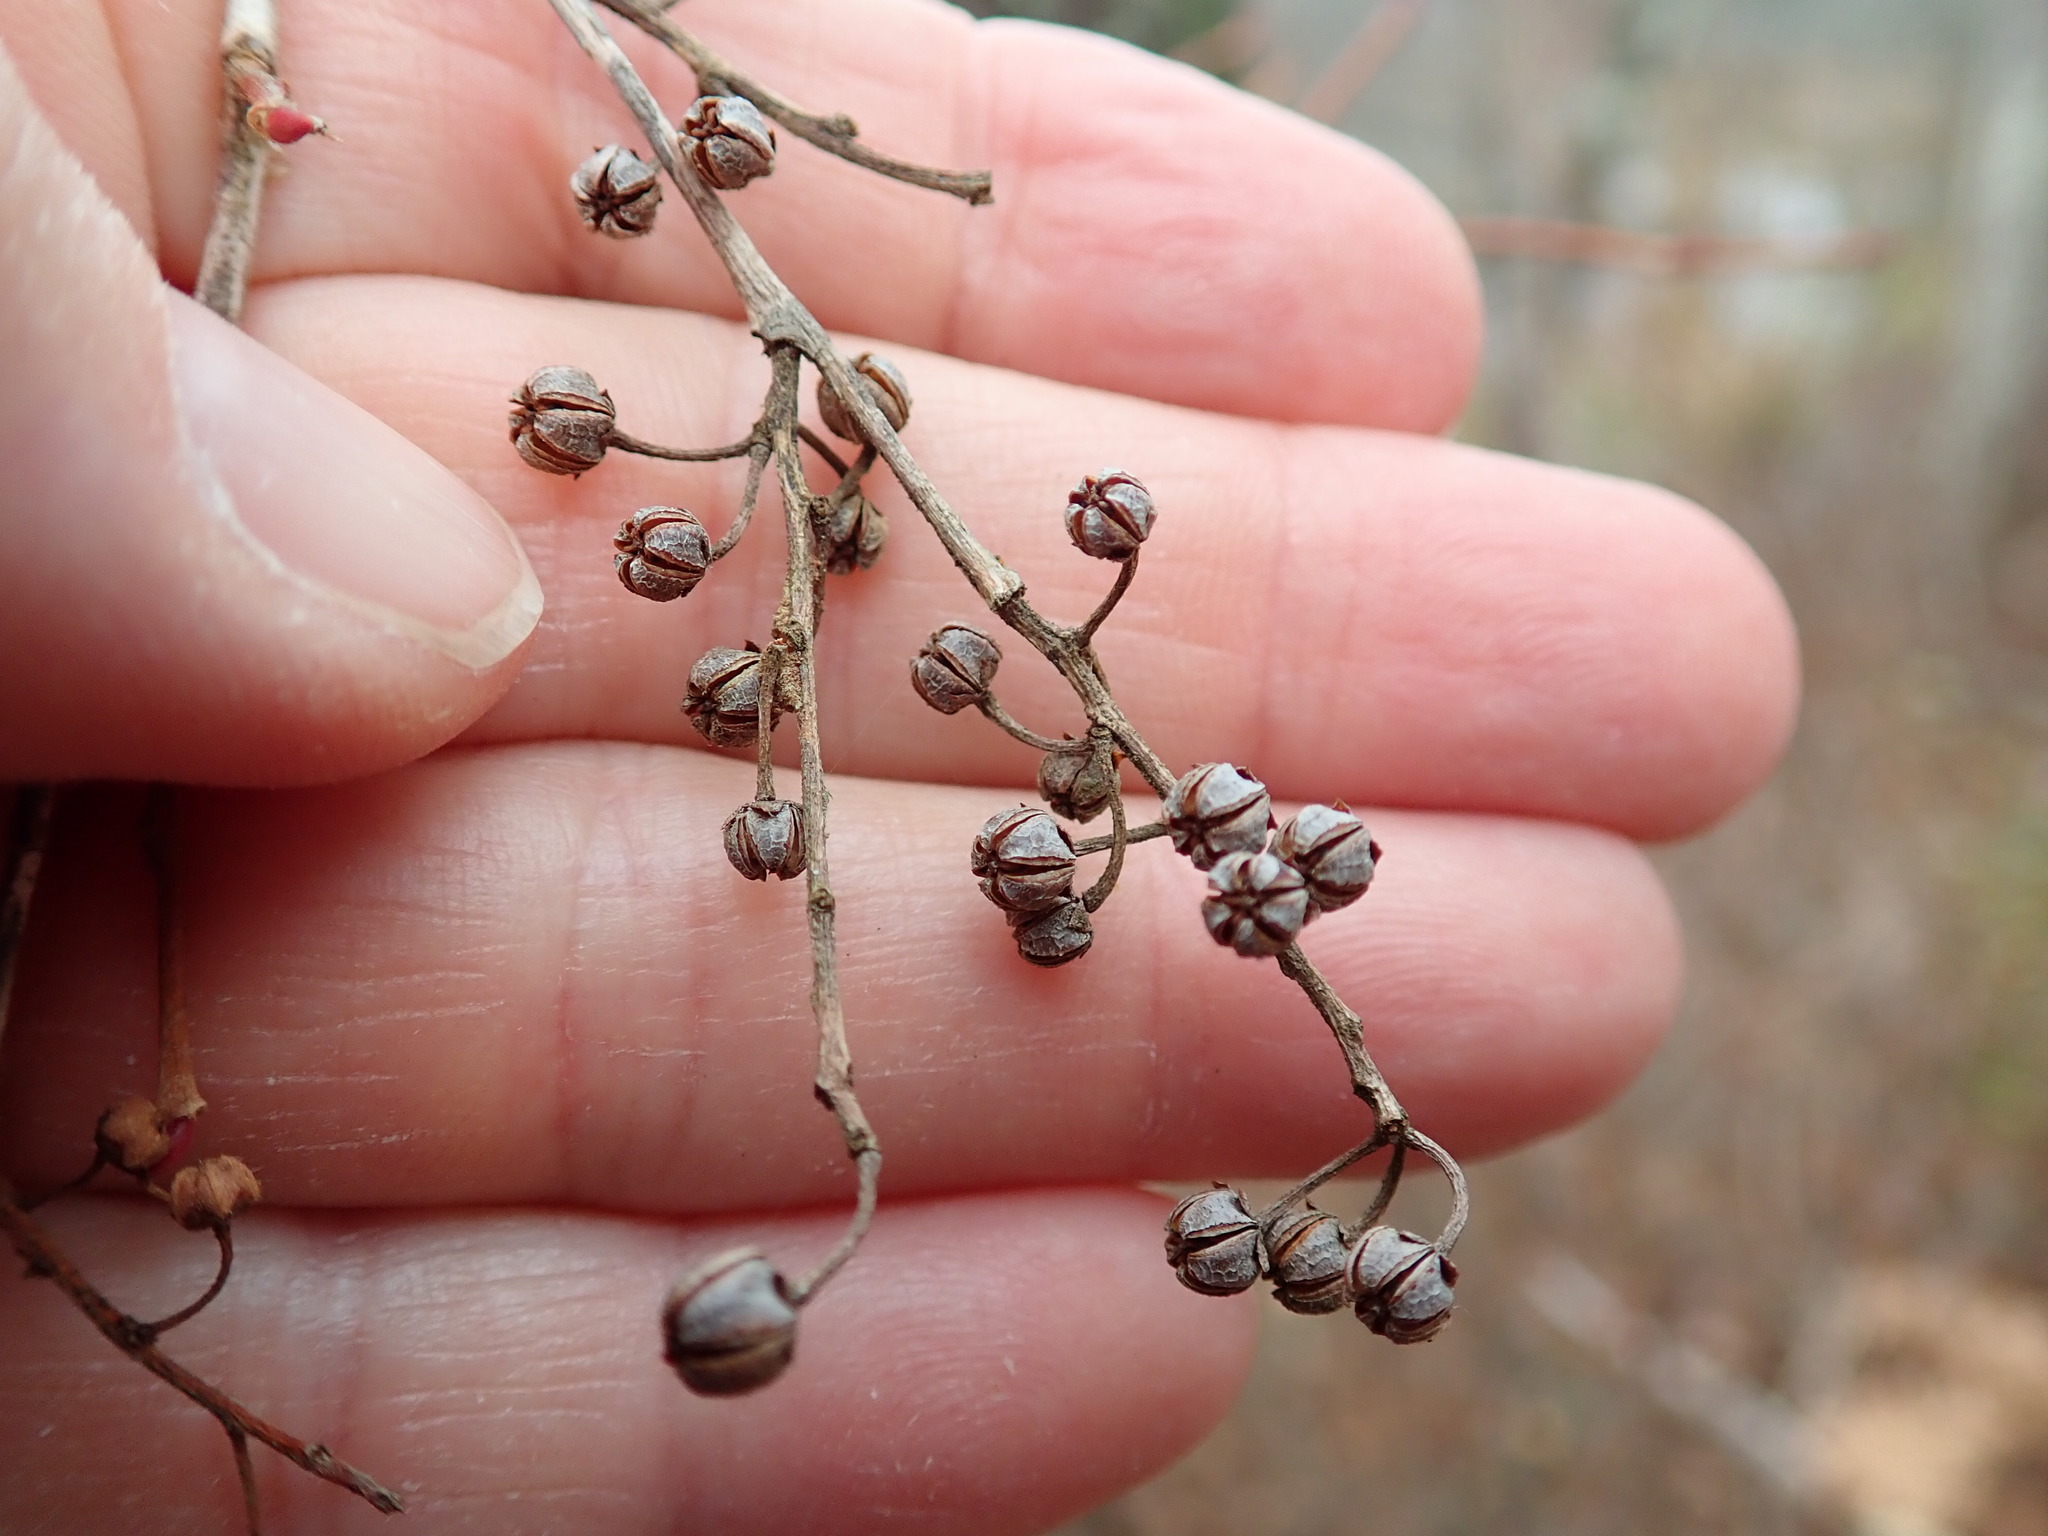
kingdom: Plantae
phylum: Tracheophyta
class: Magnoliopsida
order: Ericales
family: Ericaceae
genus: Lyonia
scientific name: Lyonia ligustrina
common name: Maleberry
